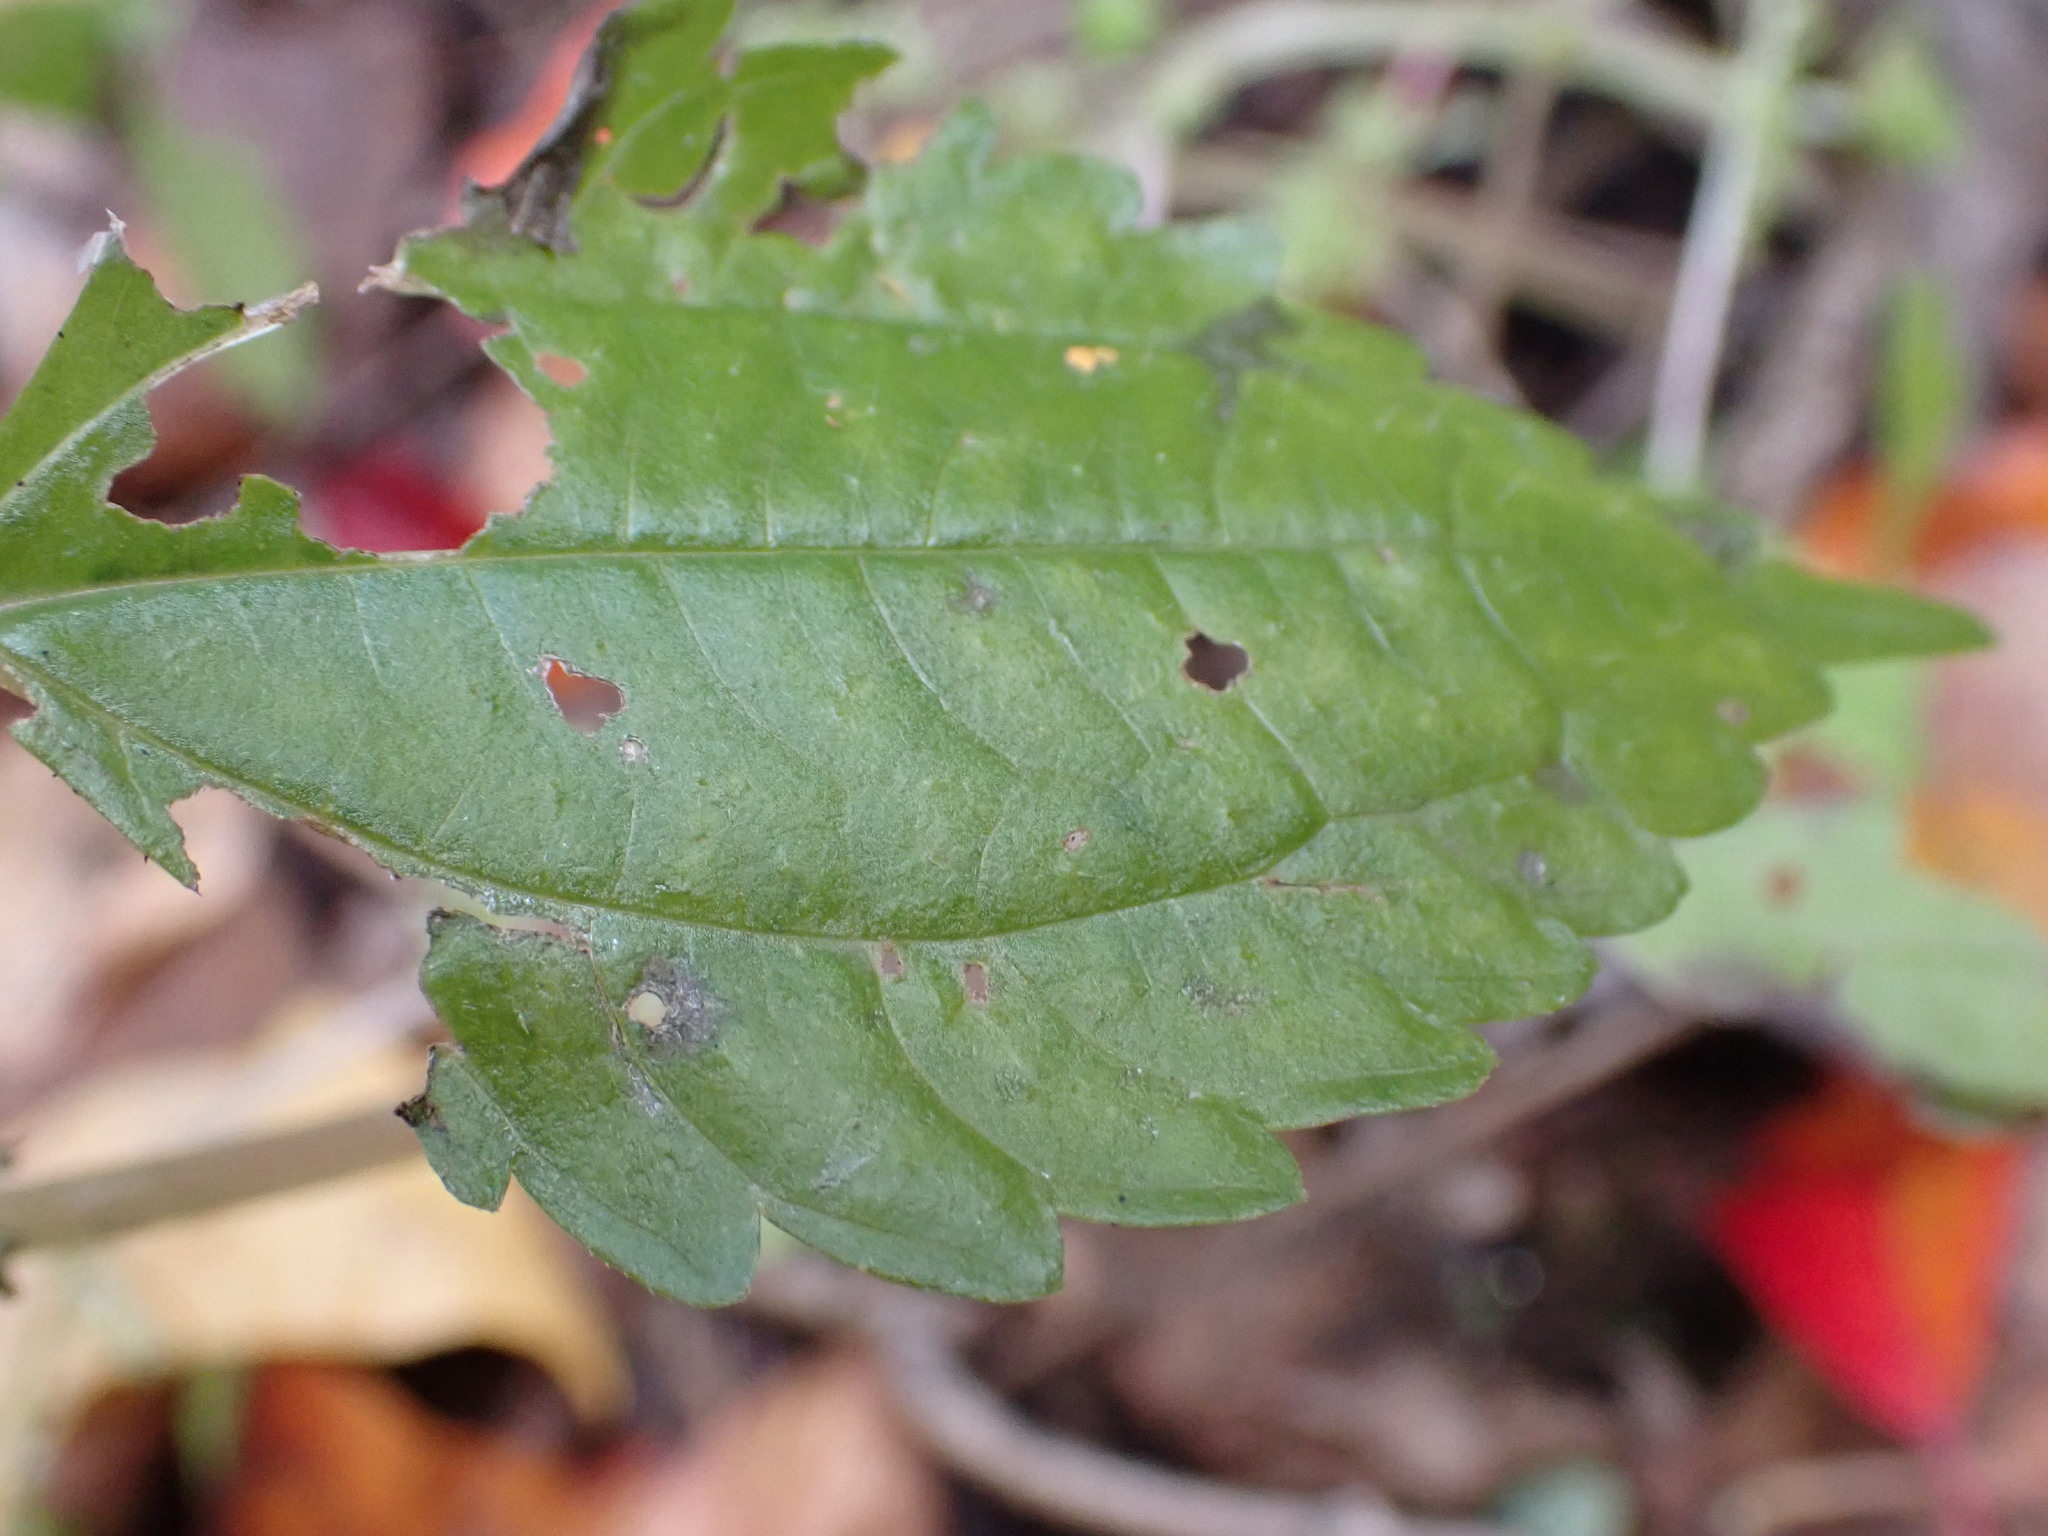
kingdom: Plantae
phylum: Tracheophyta
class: Magnoliopsida
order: Rosales
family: Urticaceae
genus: Pilea
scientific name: Pilea pumila
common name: Clearweed
